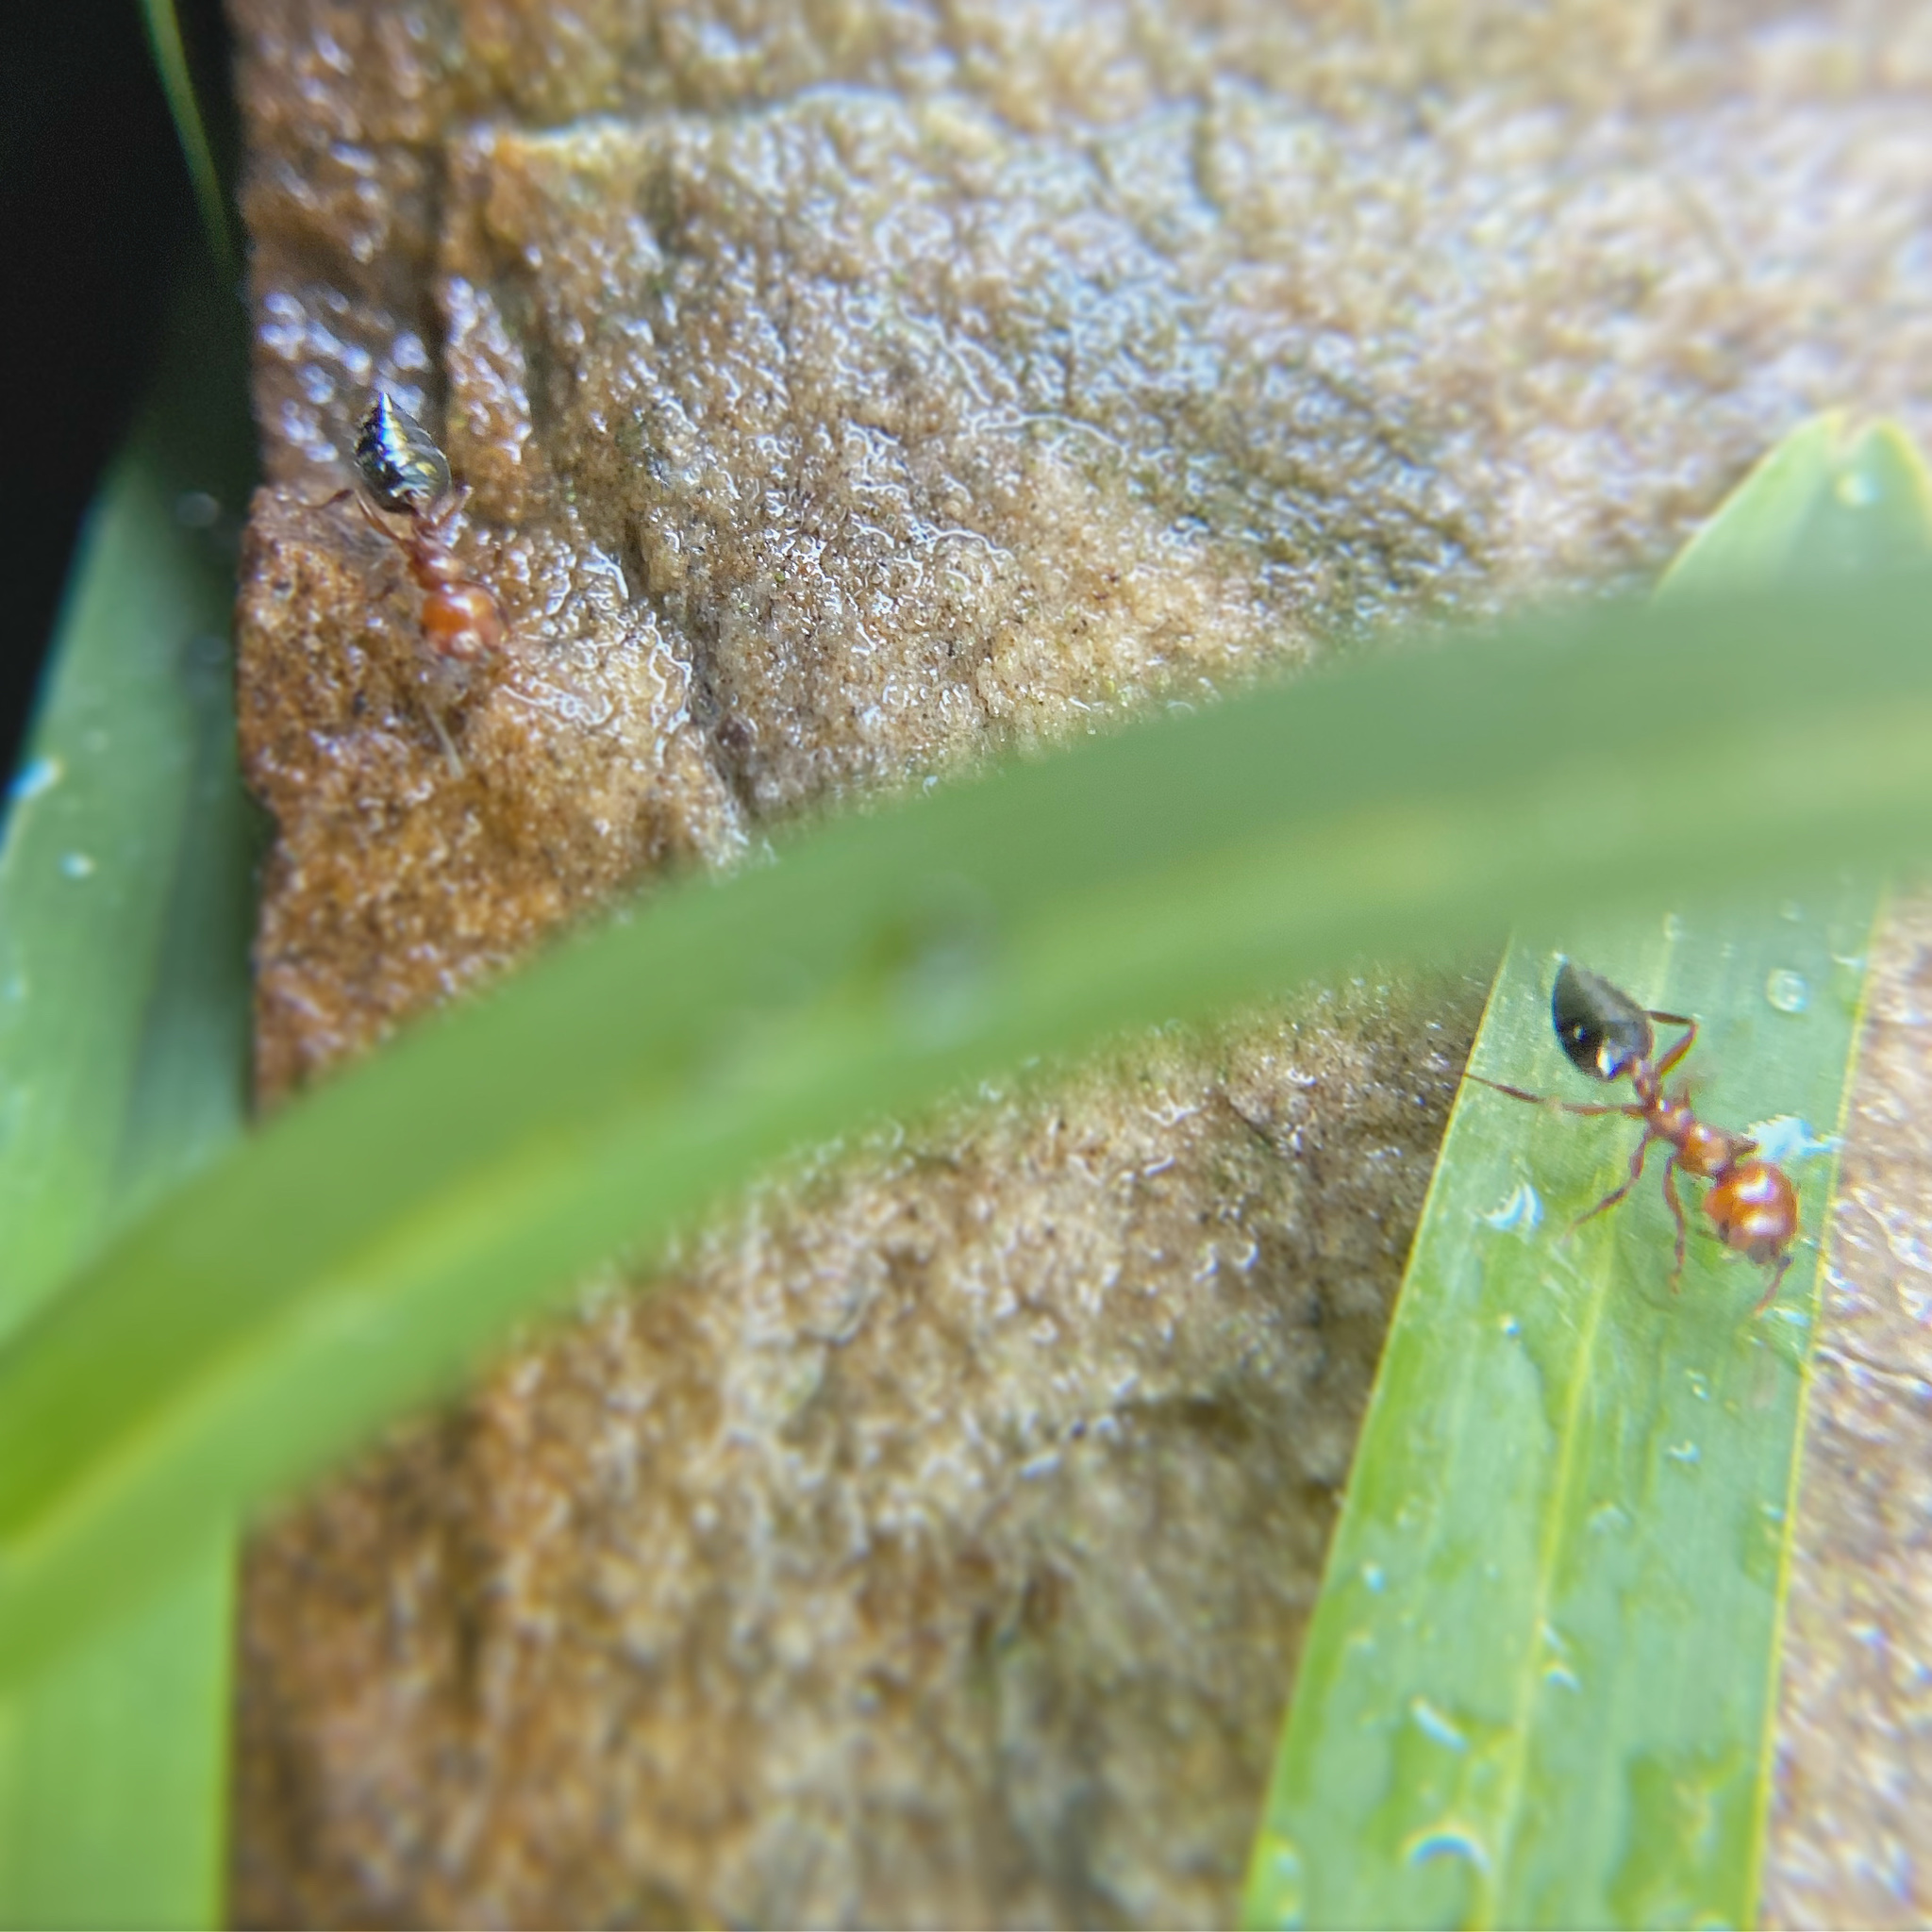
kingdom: Animalia
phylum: Arthropoda
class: Insecta
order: Hymenoptera
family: Formicidae
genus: Crematogaster
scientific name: Crematogaster laeviuscula
